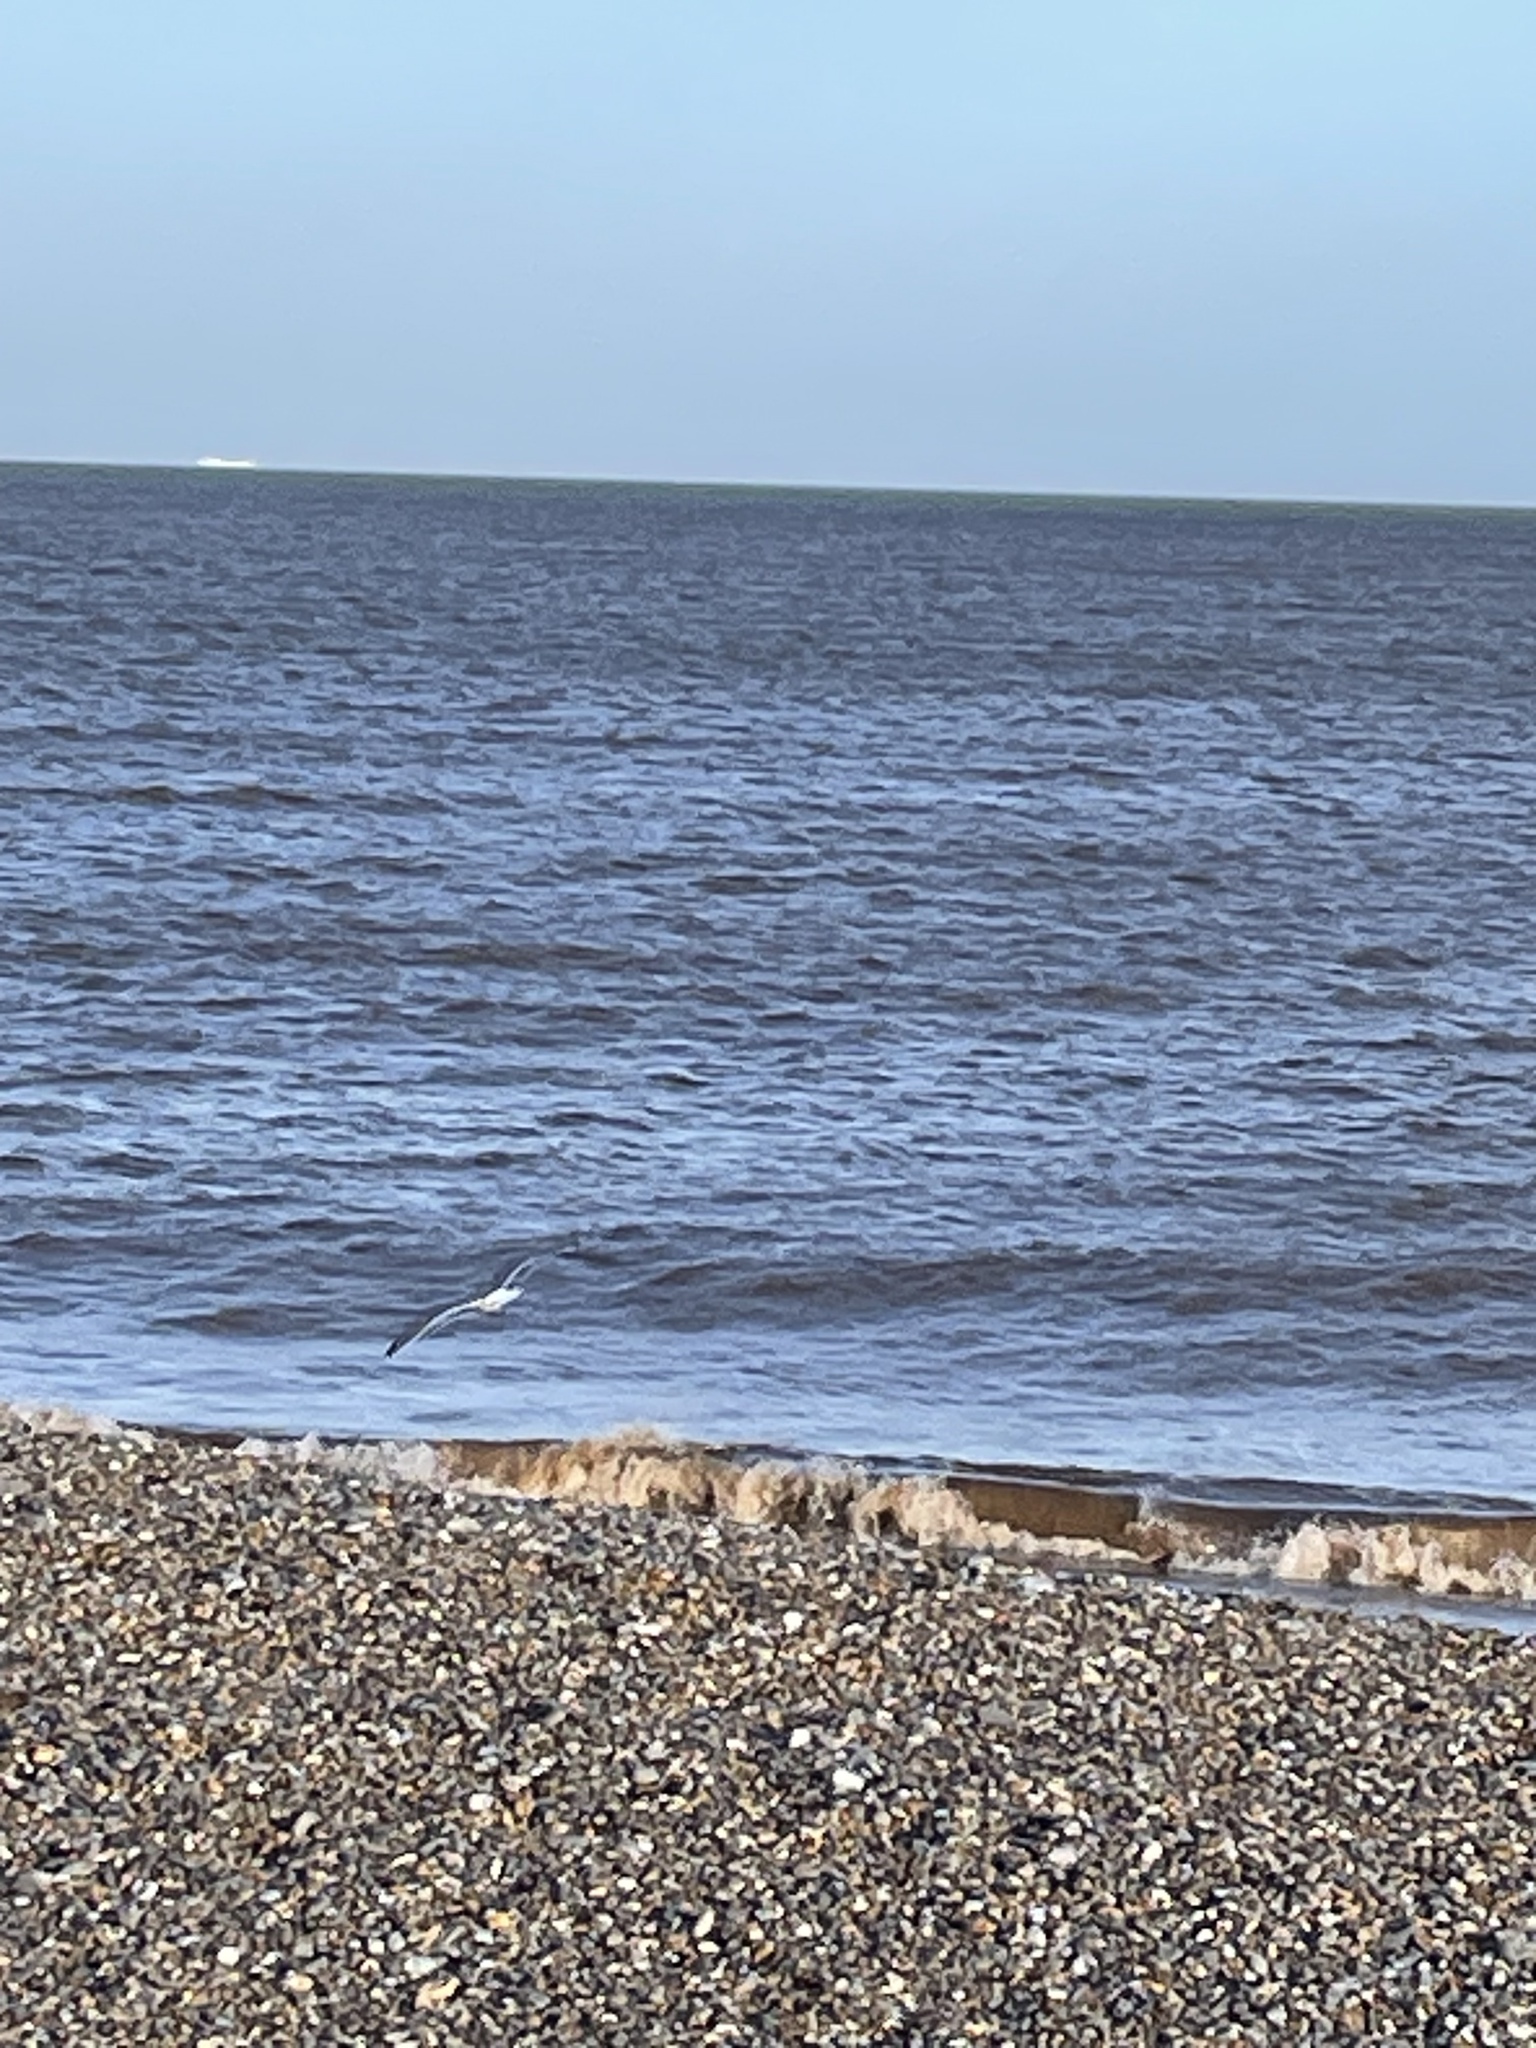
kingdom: Animalia
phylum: Chordata
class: Aves
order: Charadriiformes
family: Laridae
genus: Larus
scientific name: Larus
